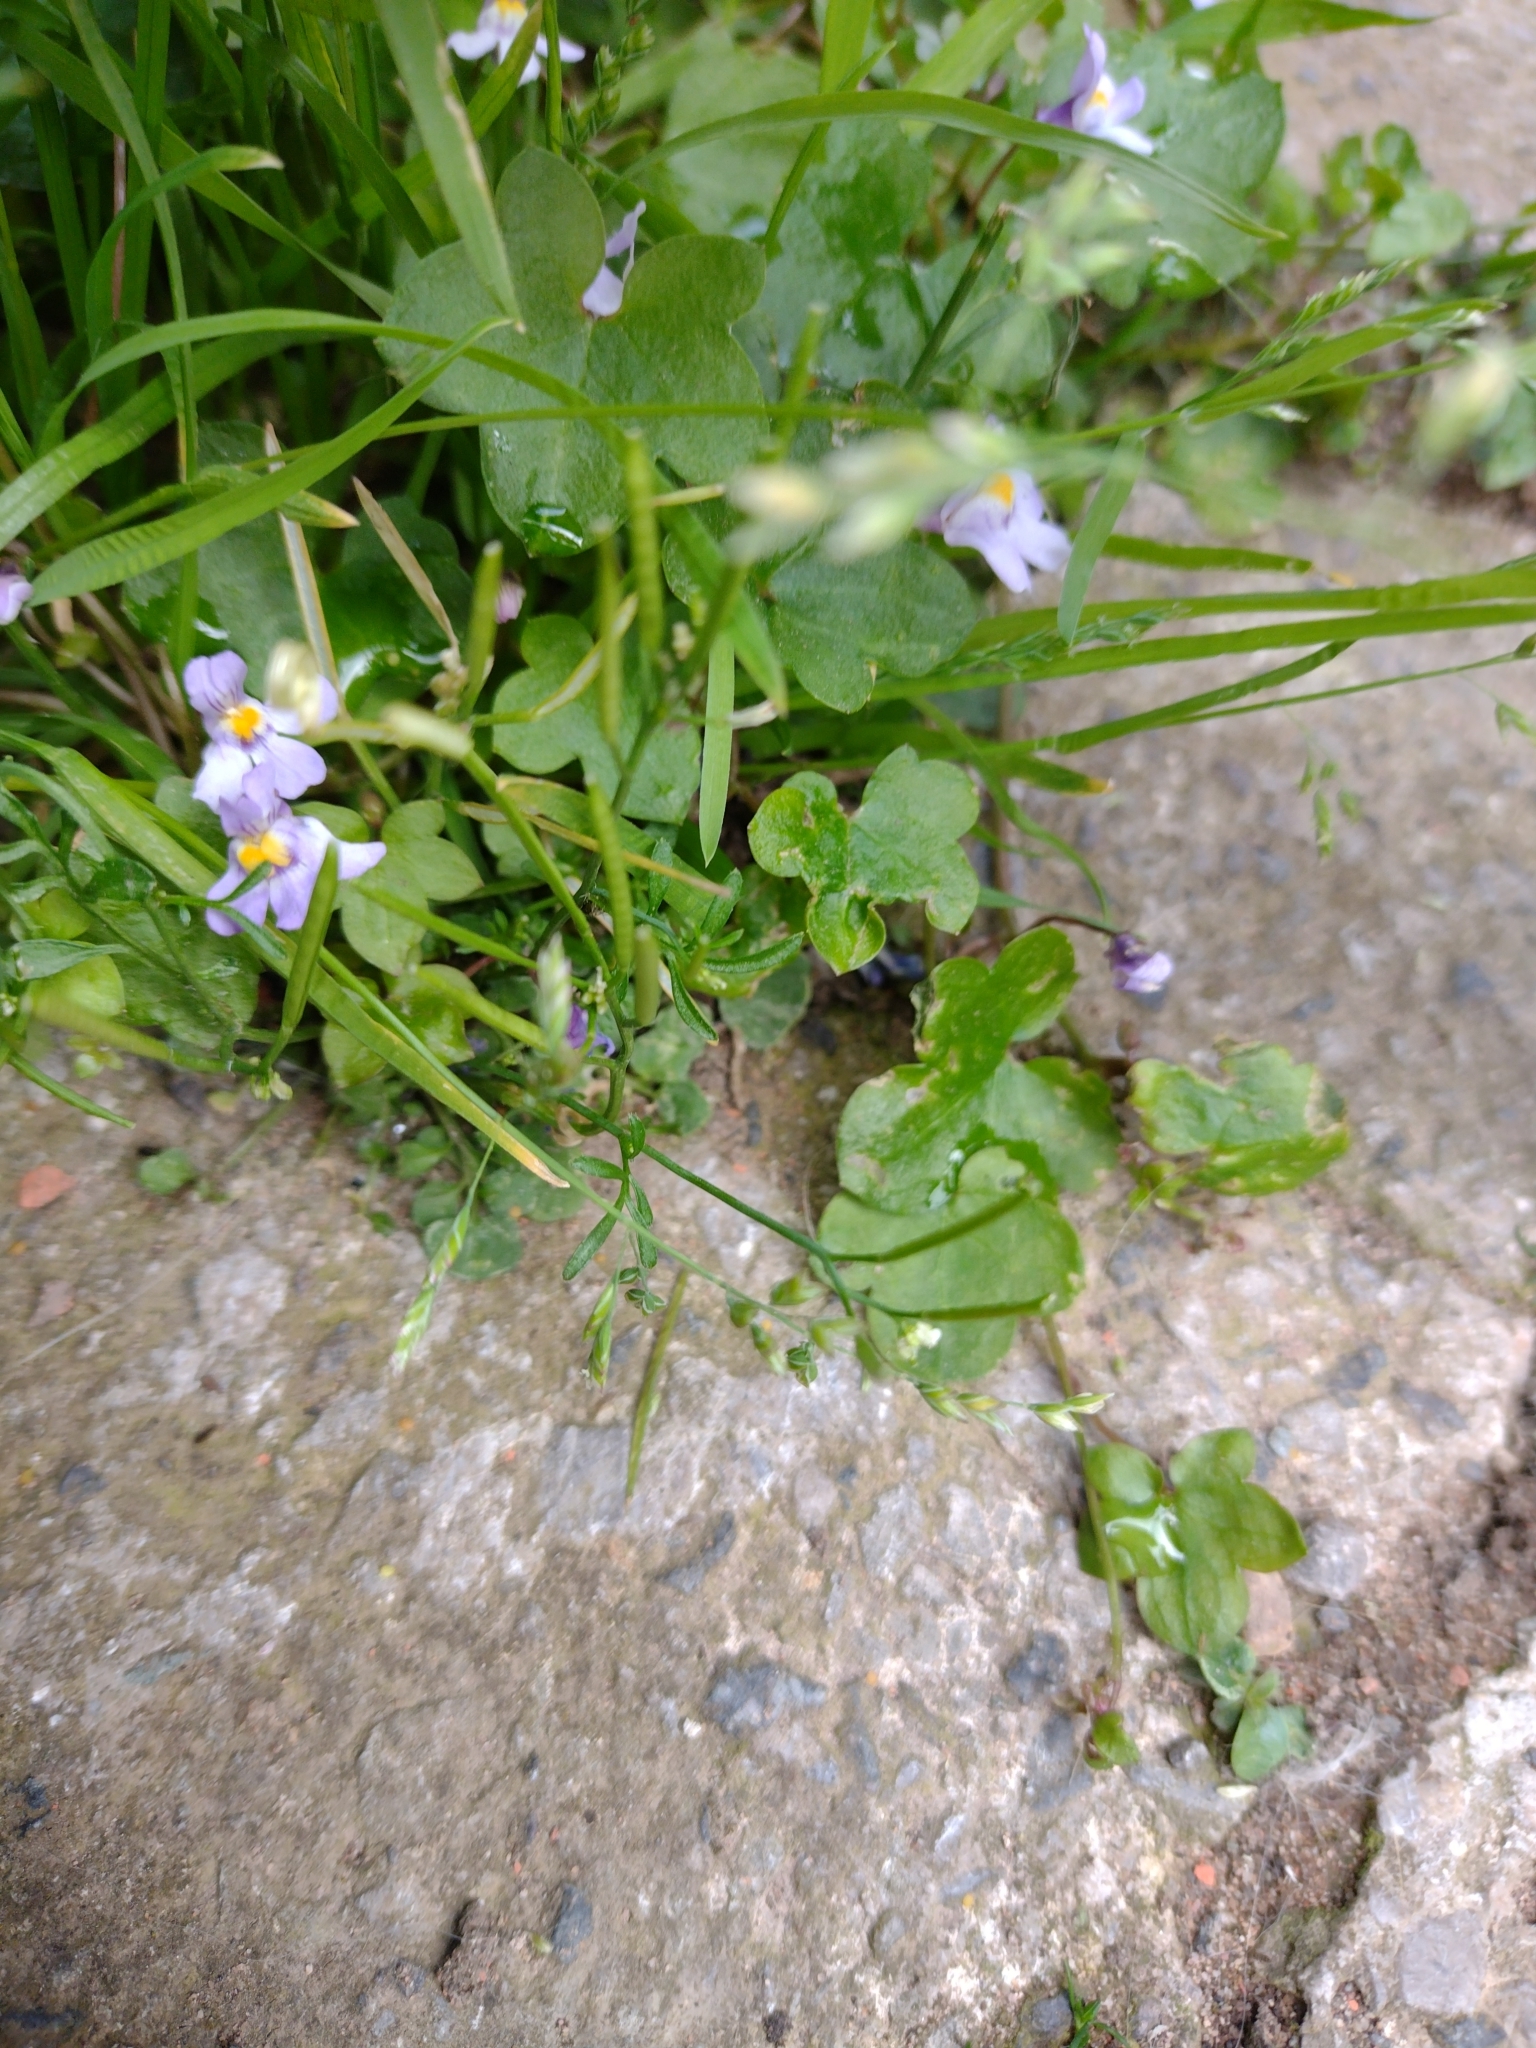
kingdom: Plantae
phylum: Tracheophyta
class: Magnoliopsida
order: Lamiales
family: Plantaginaceae
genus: Cymbalaria
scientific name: Cymbalaria muralis
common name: Ivy-leaved toadflax
